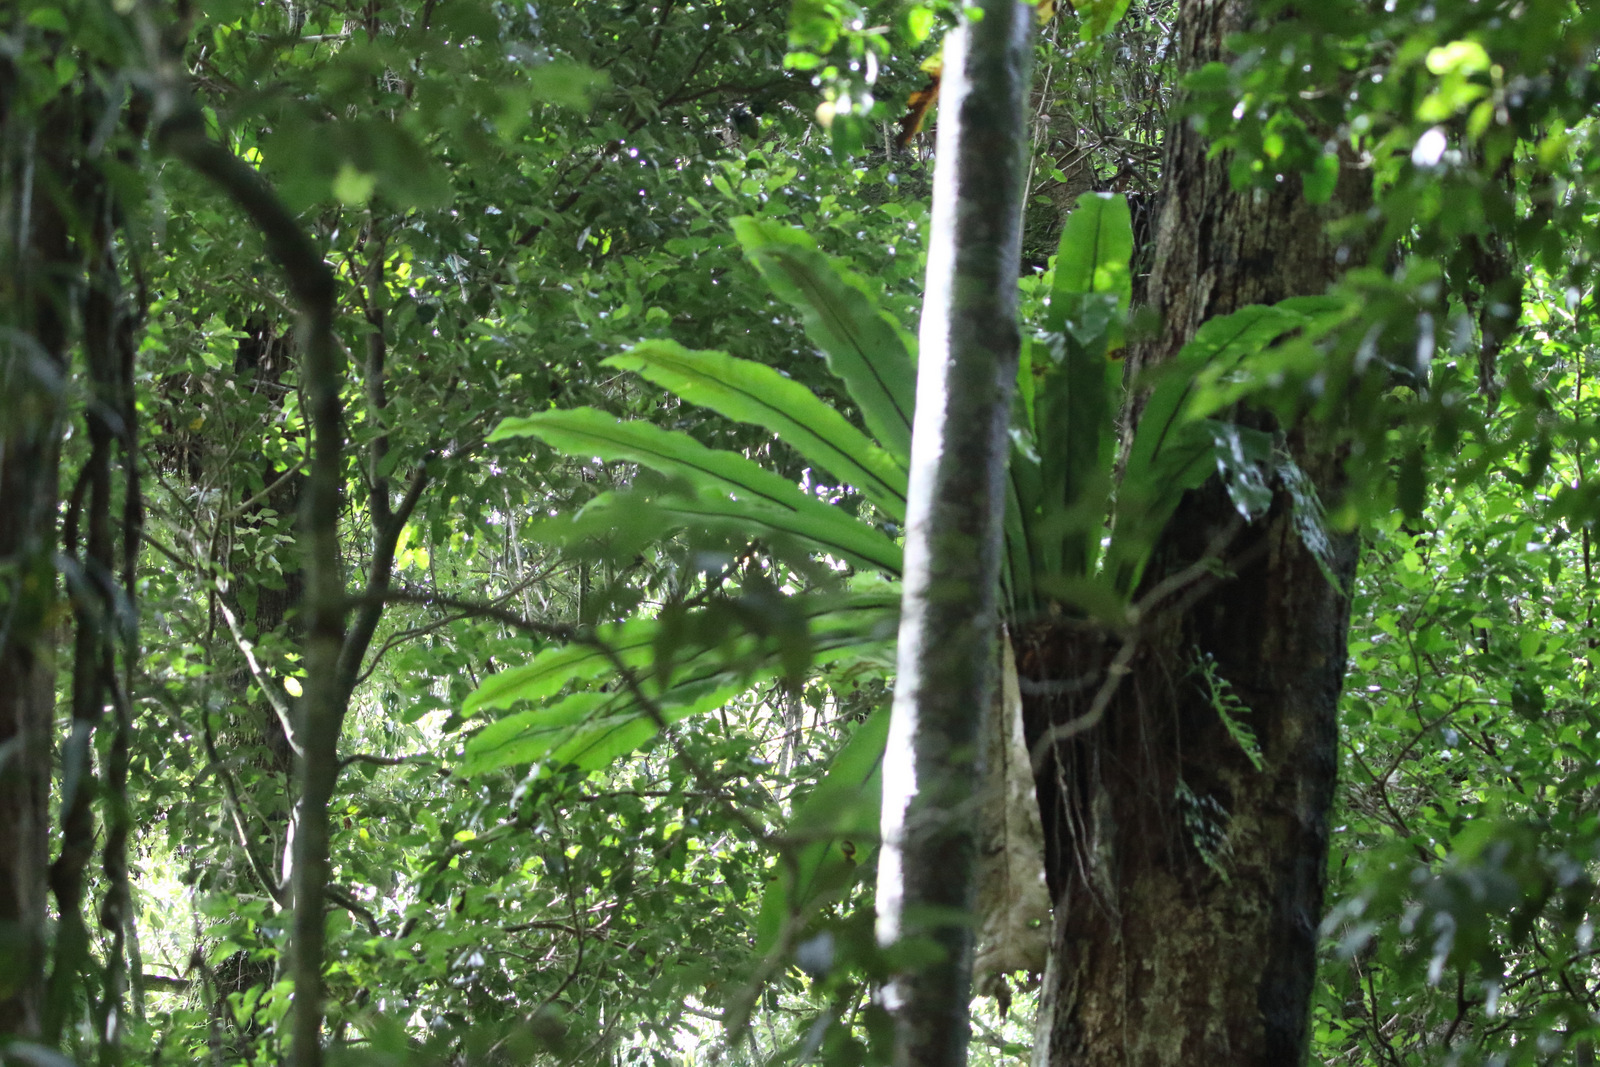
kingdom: Plantae
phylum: Tracheophyta
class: Polypodiopsida
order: Polypodiales
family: Aspleniaceae
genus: Asplenium
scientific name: Asplenium australasicum
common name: Bird's-nest fern
